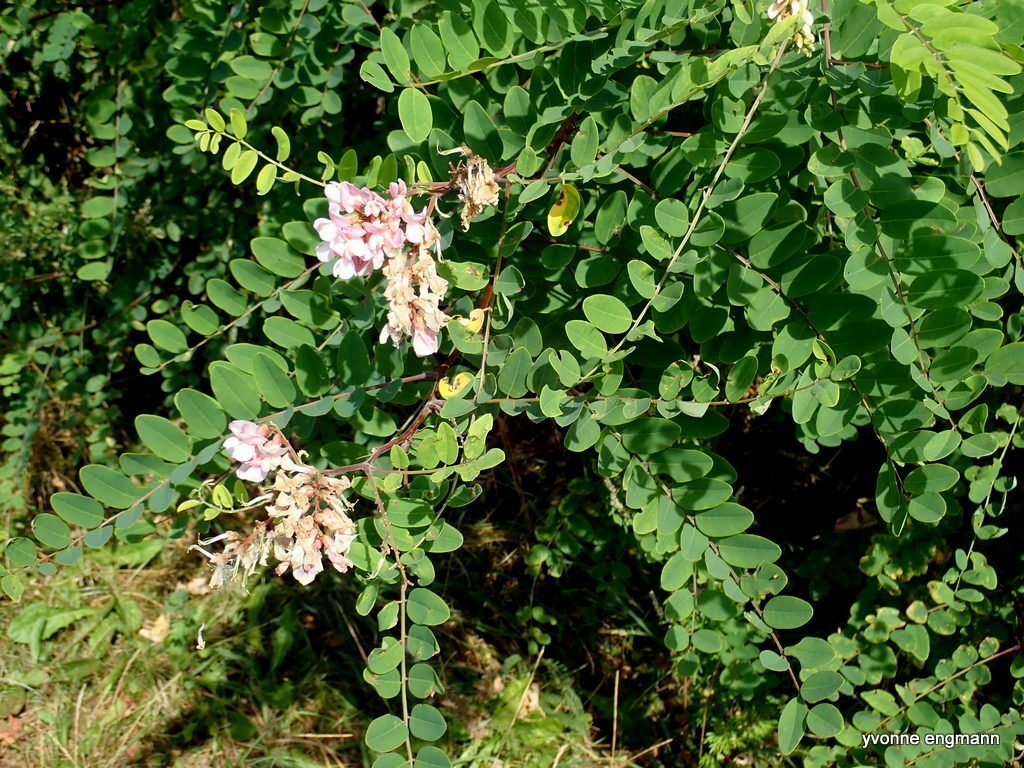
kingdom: Plantae
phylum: Tracheophyta
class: Magnoliopsida
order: Fabales
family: Fabaceae
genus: Robinia
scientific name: Robinia pseudoacacia
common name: Black locust
